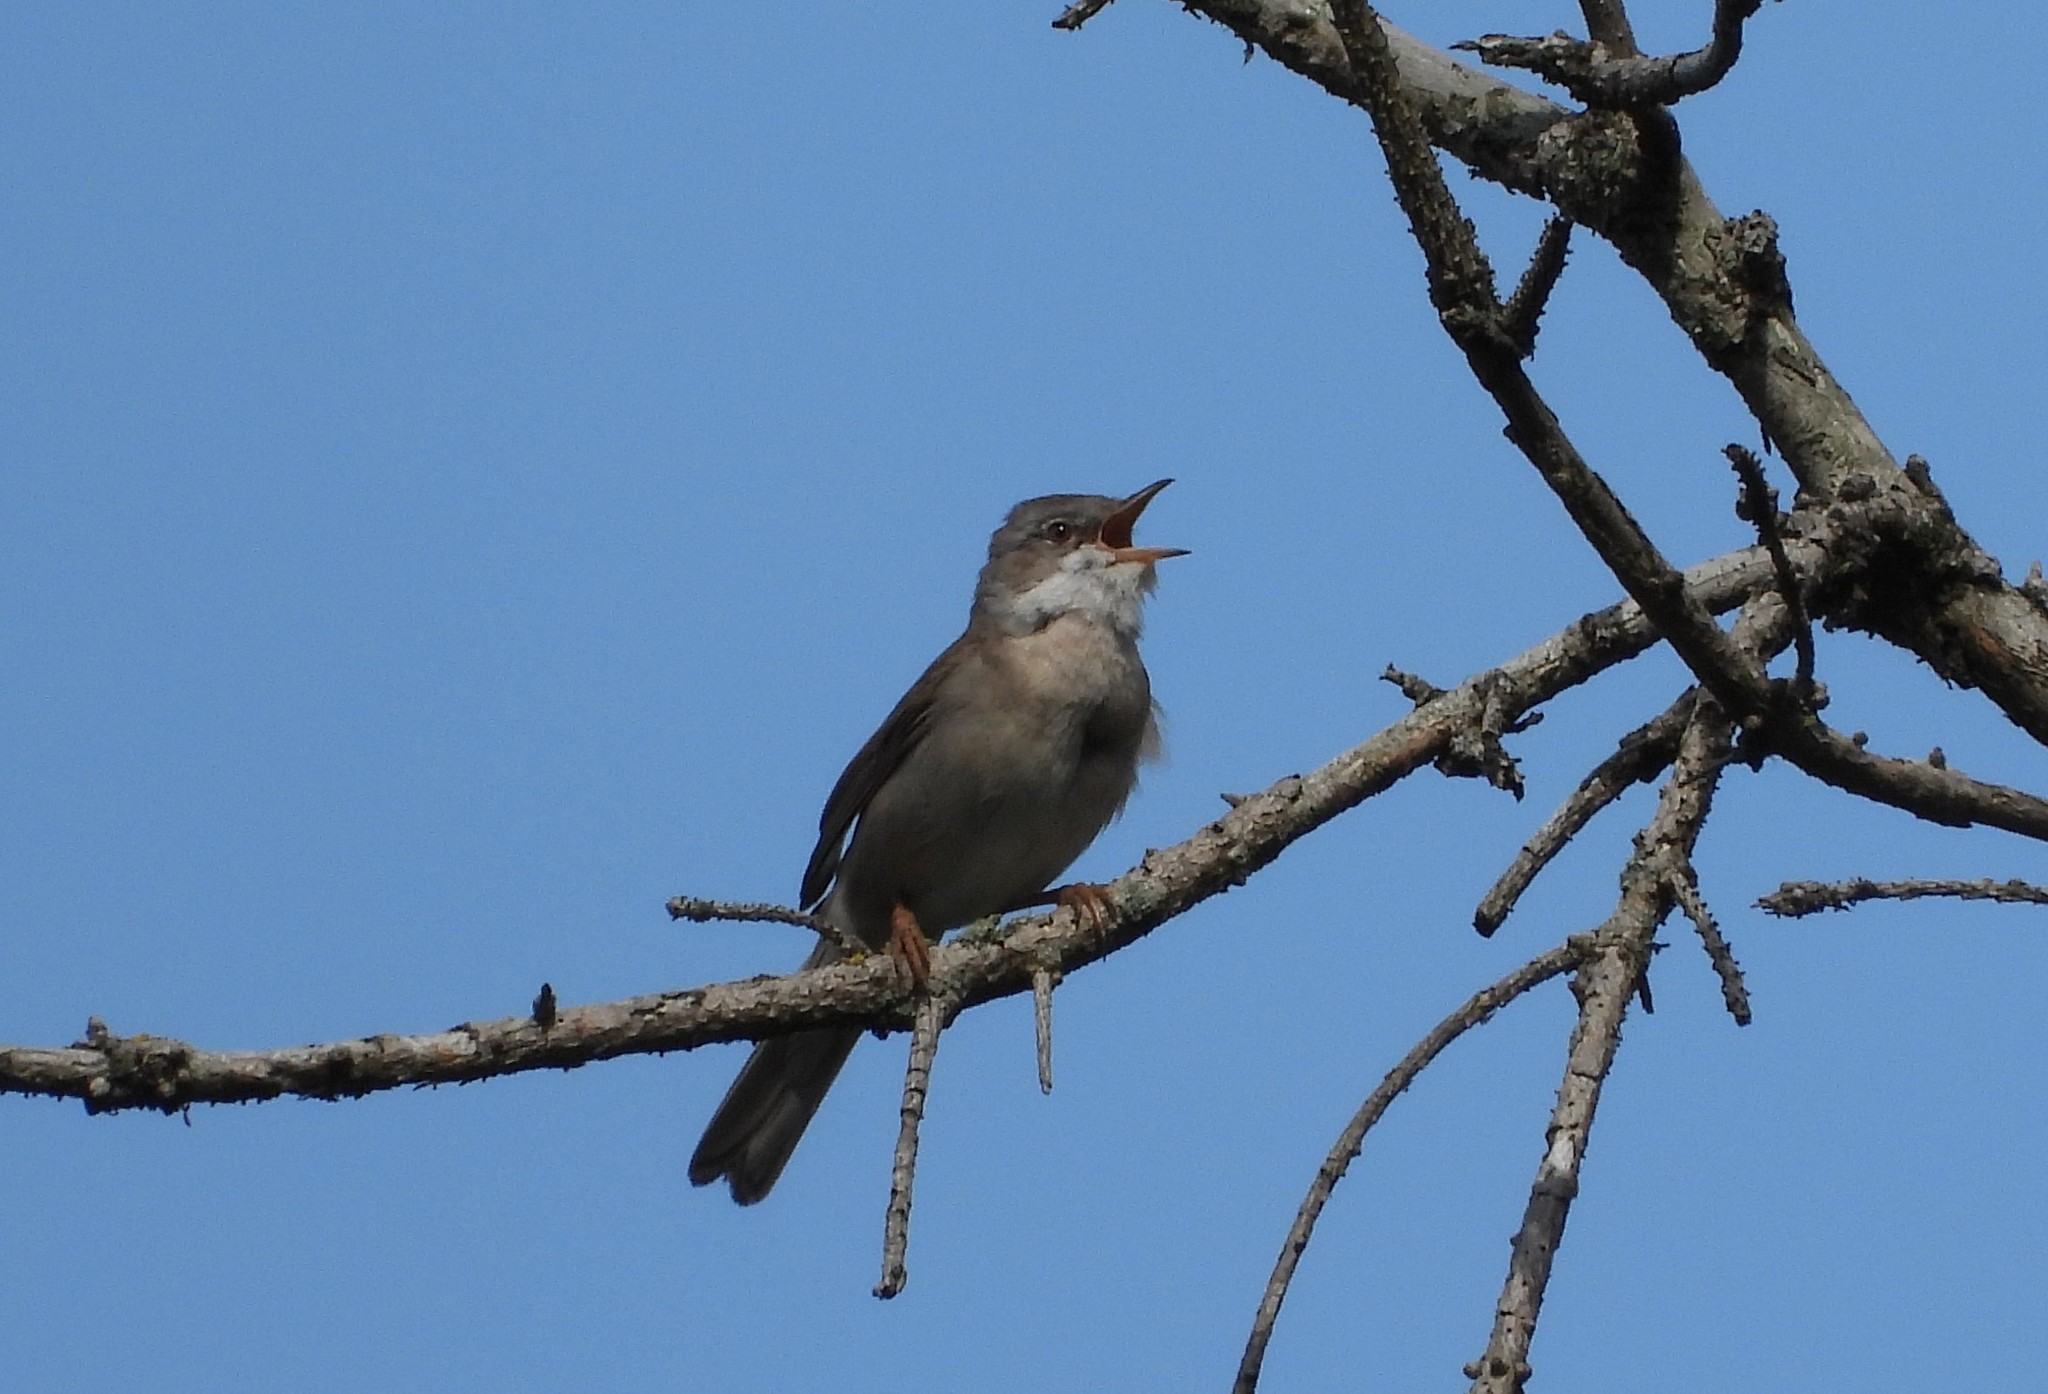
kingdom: Animalia
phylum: Chordata
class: Aves
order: Passeriformes
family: Sylviidae
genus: Sylvia
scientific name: Sylvia communis
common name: Common whitethroat
